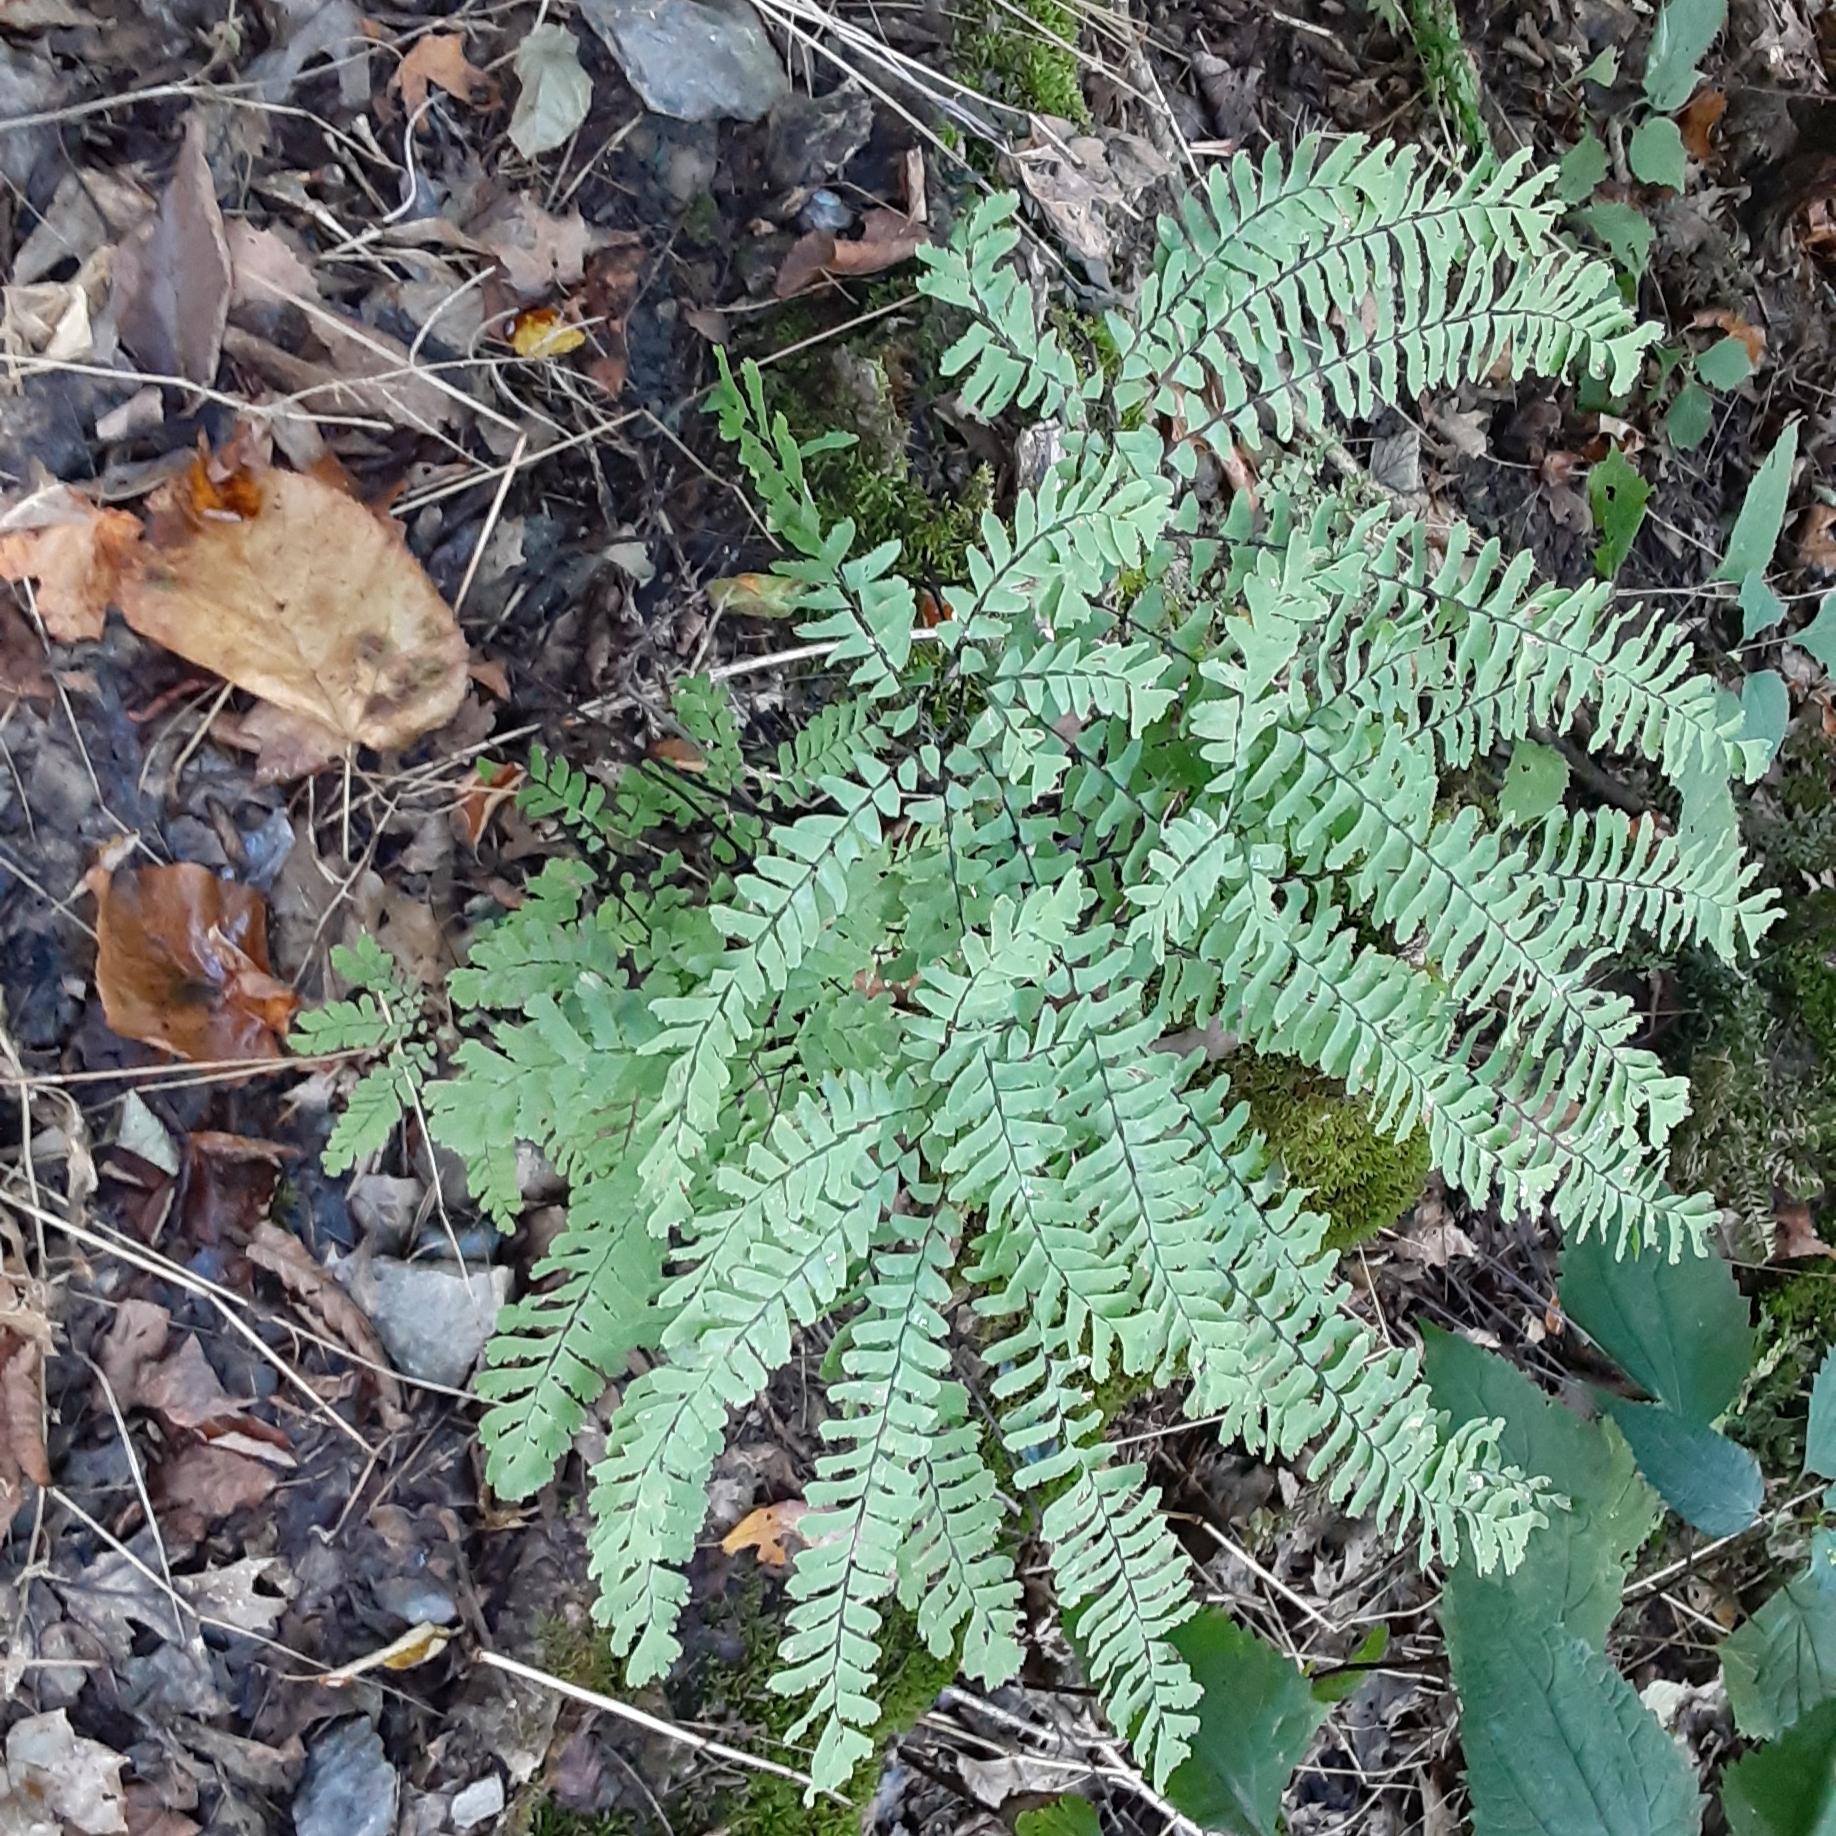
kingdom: Plantae
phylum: Tracheophyta
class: Polypodiopsida
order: Polypodiales
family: Pteridaceae
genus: Adiantum
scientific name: Adiantum pedatum
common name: Five-finger fern
